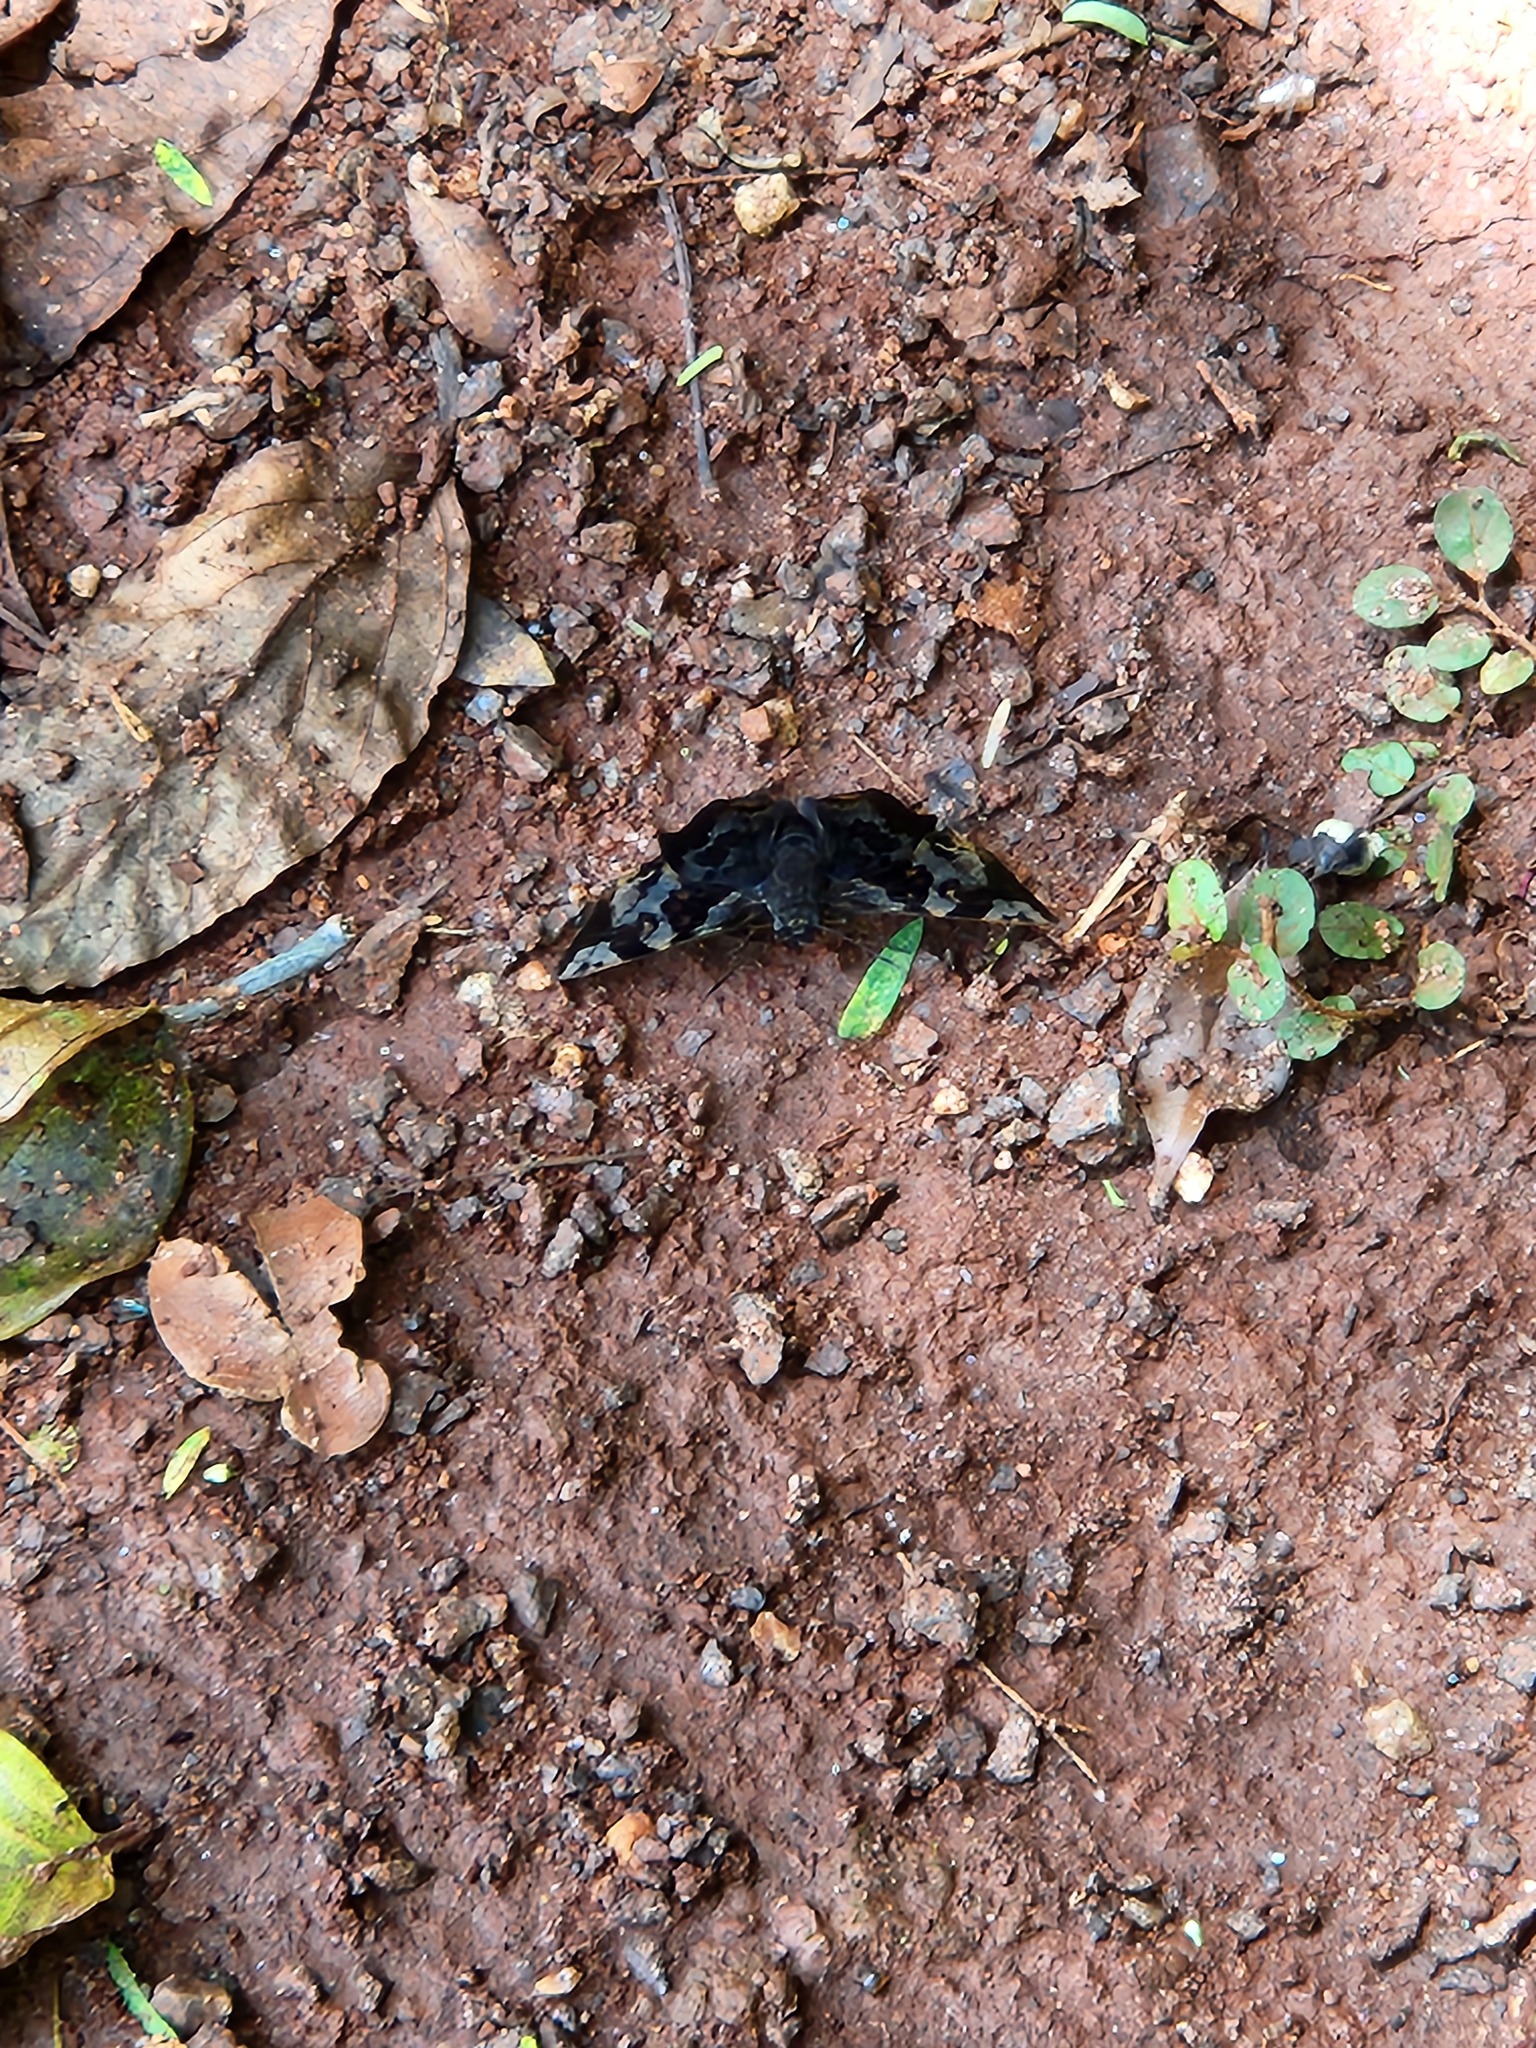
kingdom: Animalia
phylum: Arthropoda
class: Insecta
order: Lepidoptera
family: Hesperiidae
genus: Antigonus
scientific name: Antigonus nearchus
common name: Death-mask spurwing
